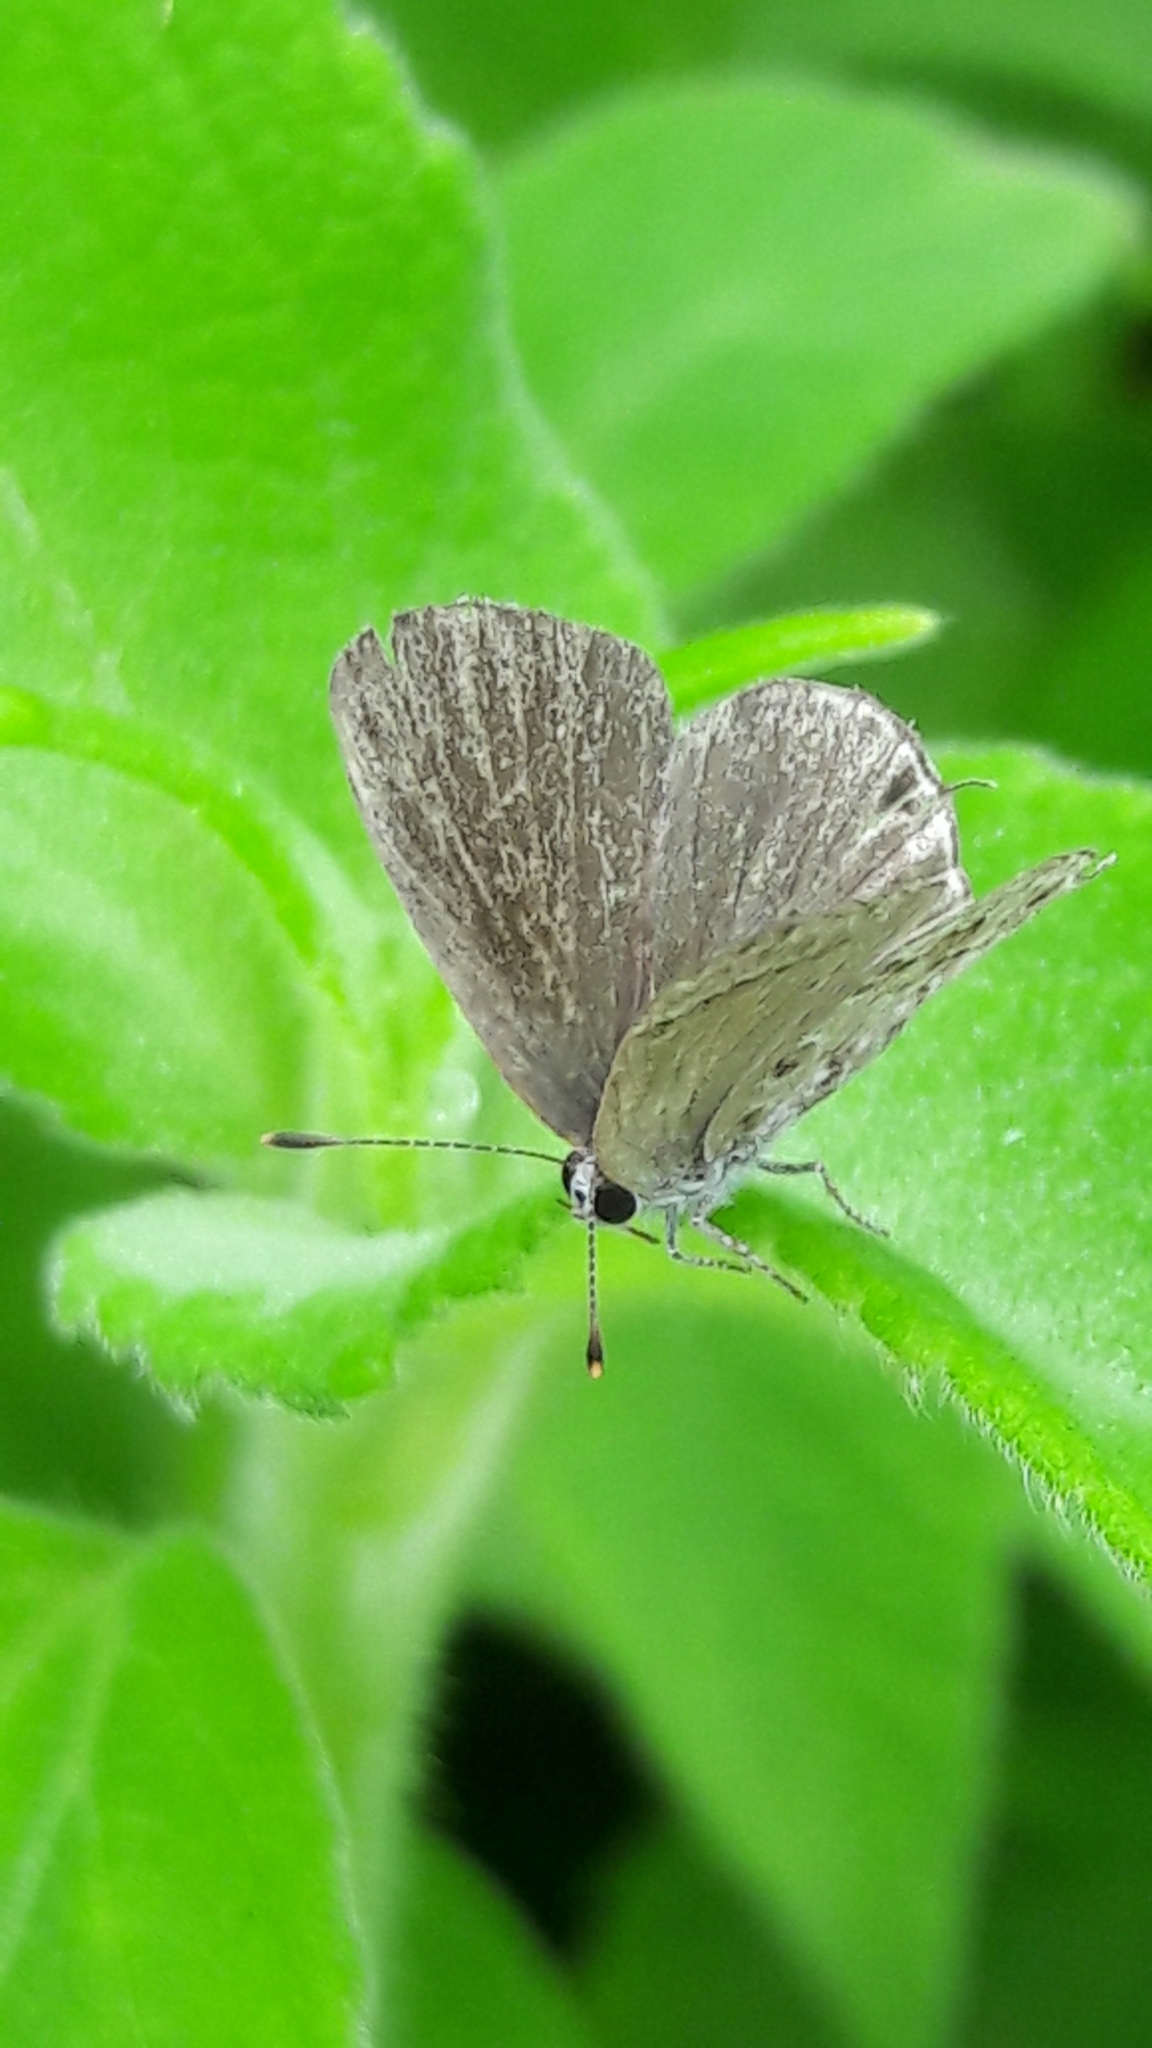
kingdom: Animalia
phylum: Arthropoda
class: Insecta
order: Lepidoptera
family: Lycaenidae
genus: Strymon
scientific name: Strymon astiocha
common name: Gray-spotted scrub-hairstreak
